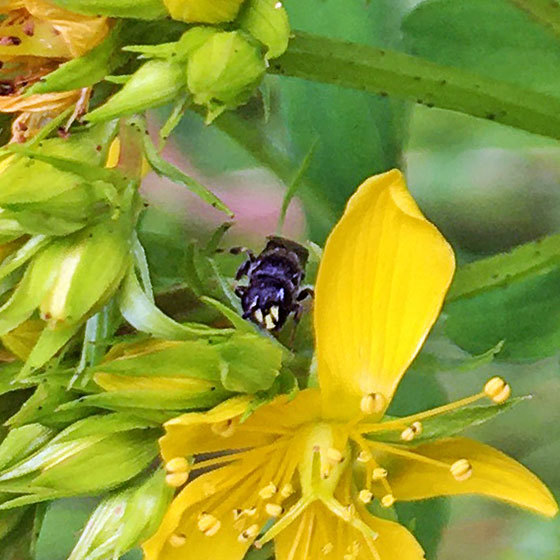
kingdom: Animalia
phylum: Arthropoda
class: Insecta
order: Hymenoptera
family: Colletidae
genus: Hylaeus
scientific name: Hylaeus communis
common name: Common yellow-face bee
